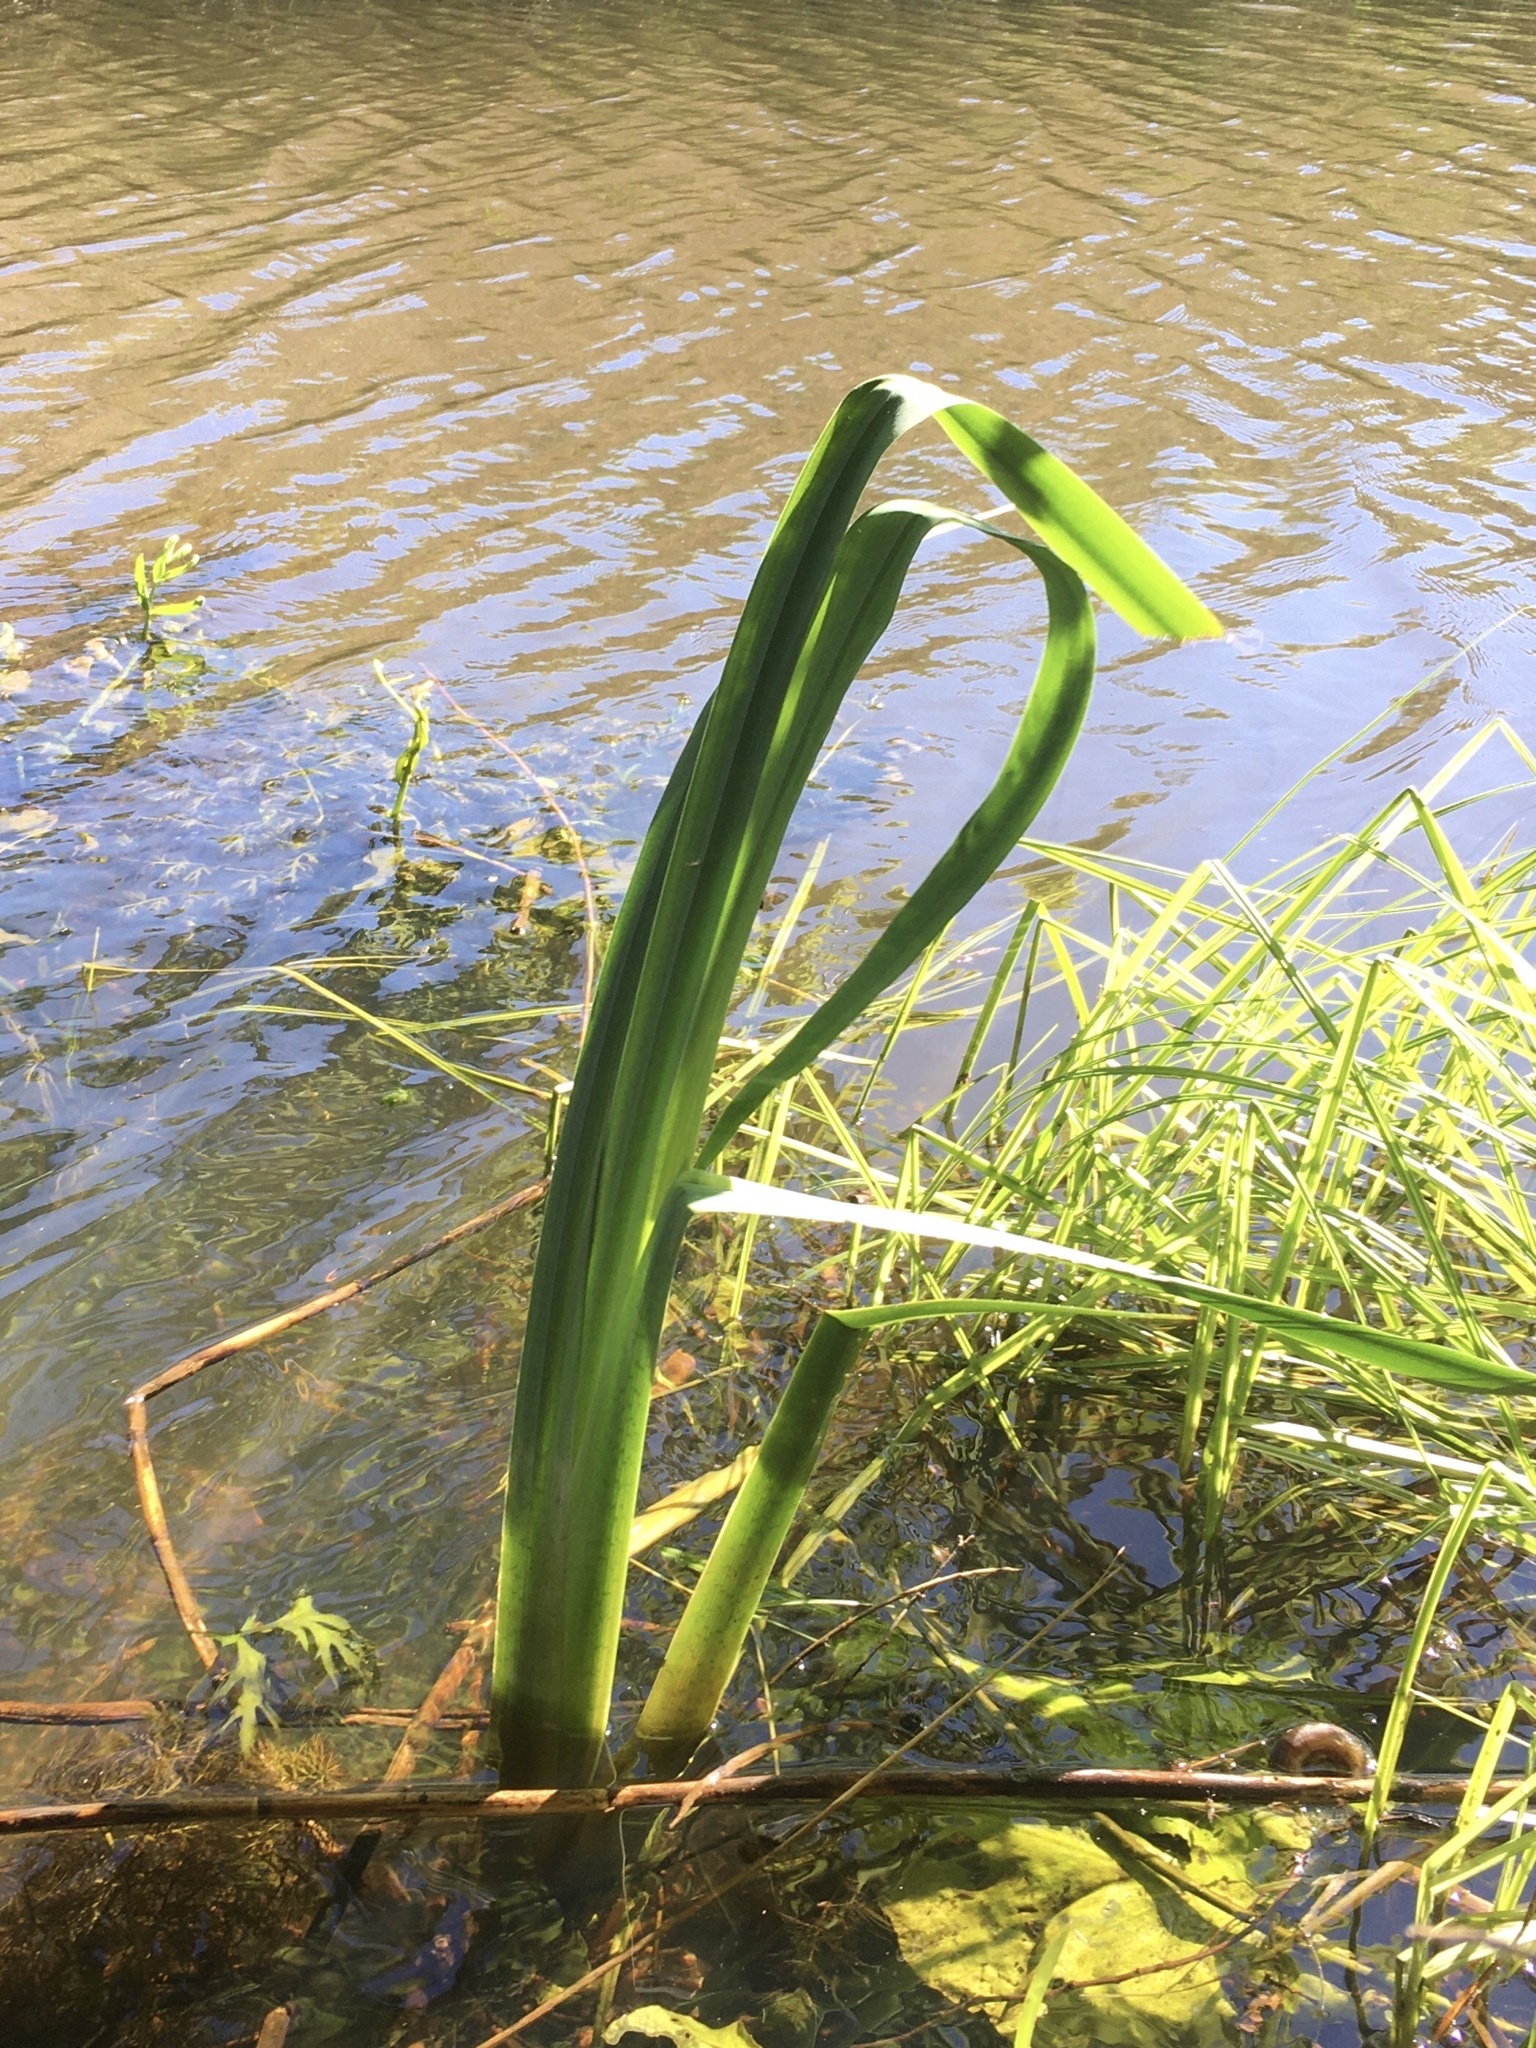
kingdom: Plantae
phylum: Tracheophyta
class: Liliopsida
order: Asparagales
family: Iridaceae
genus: Iris
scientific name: Iris pseudacorus
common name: Yellow flag
